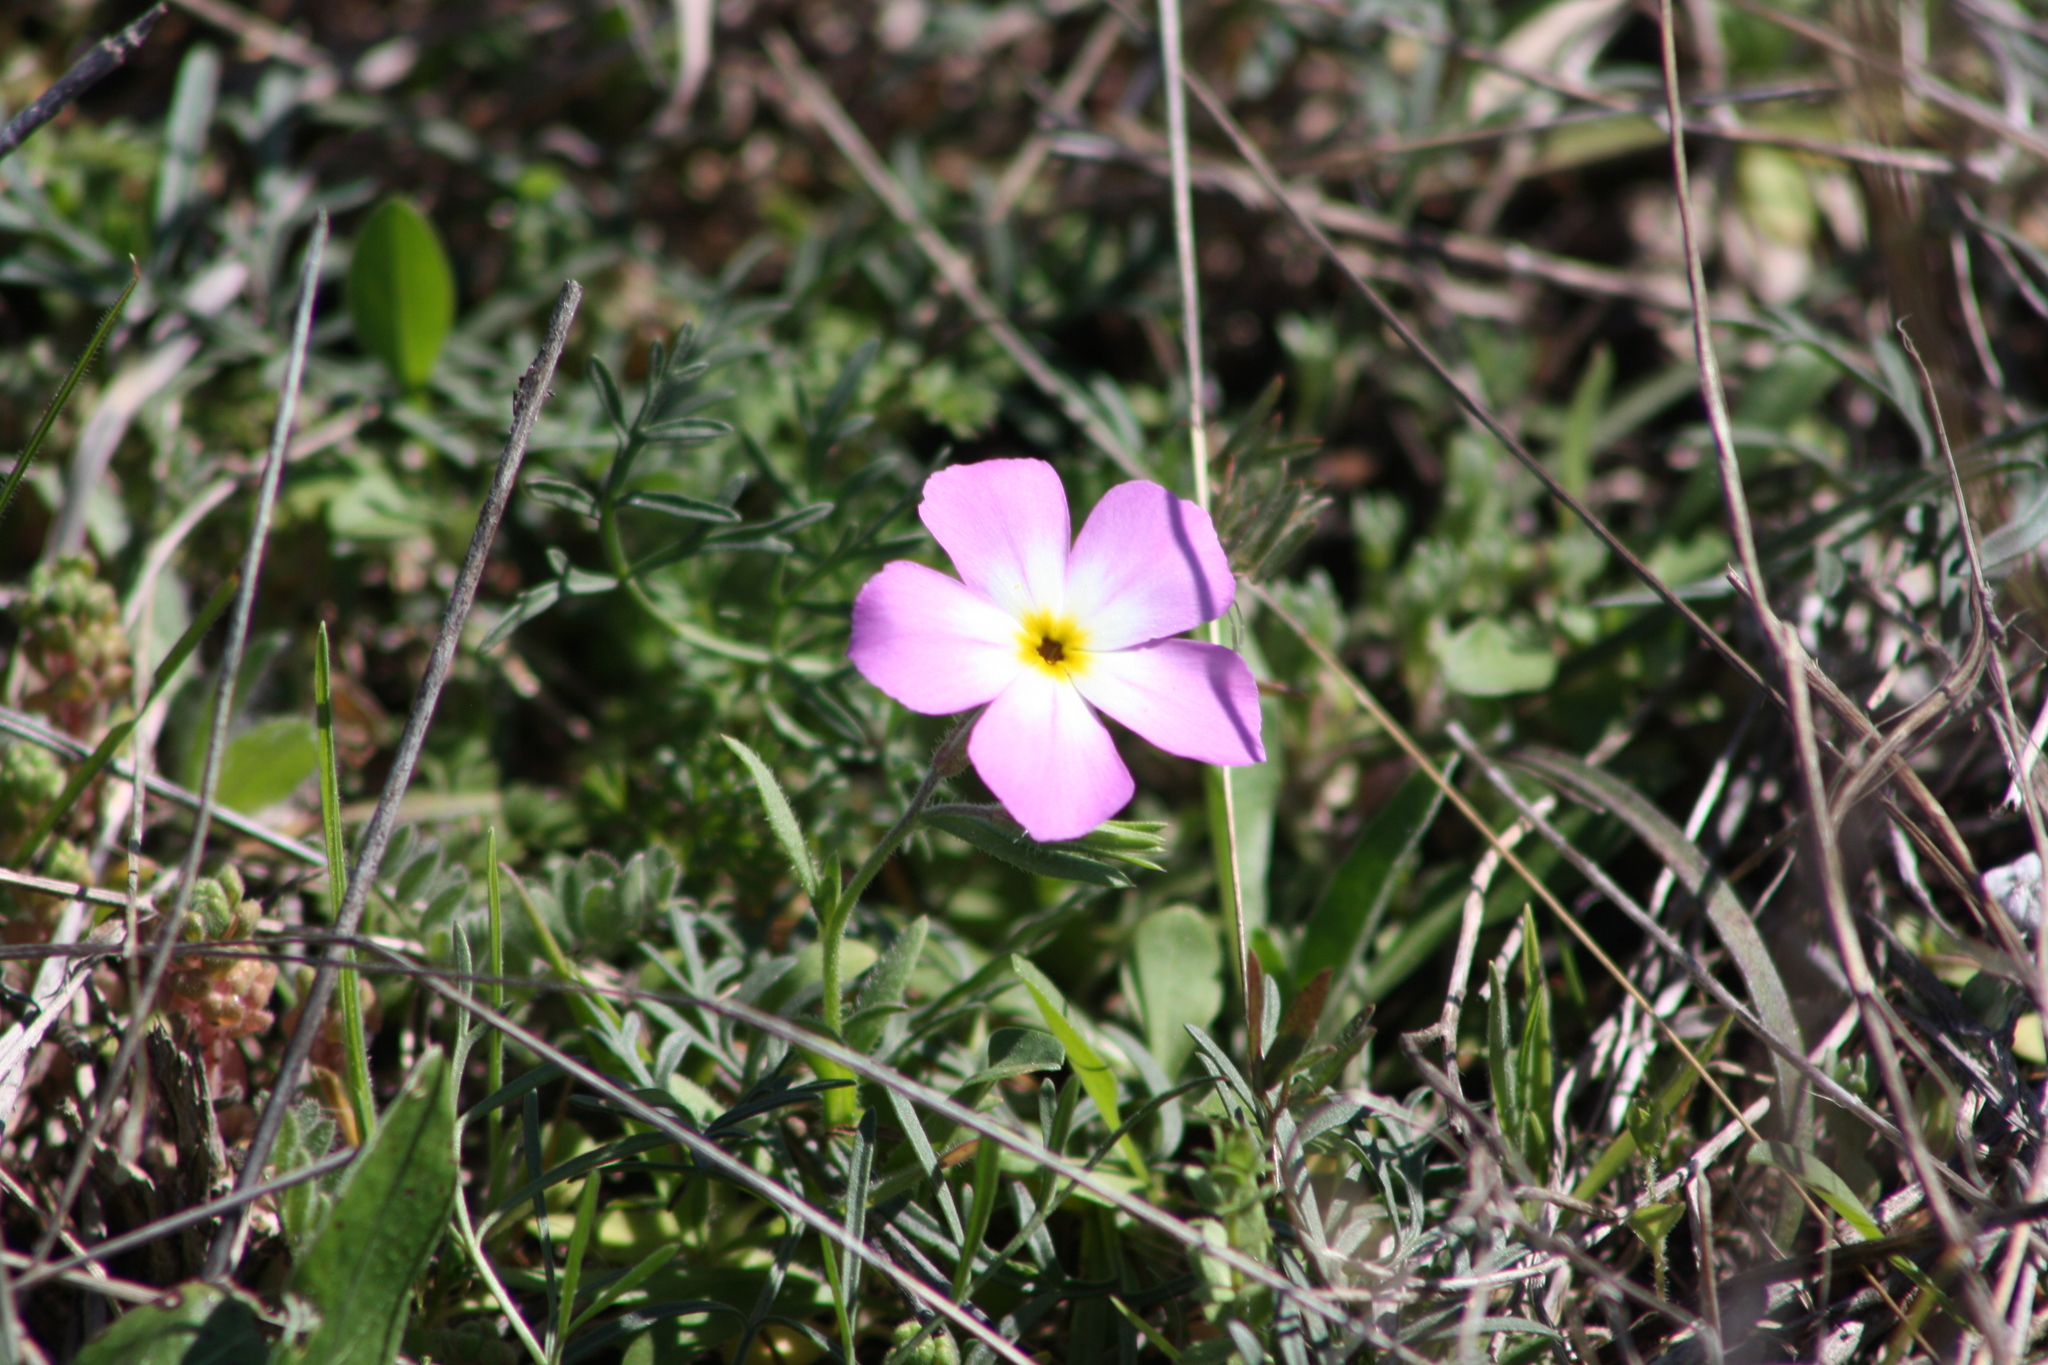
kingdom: Plantae
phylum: Tracheophyta
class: Magnoliopsida
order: Ericales
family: Polemoniaceae
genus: Phlox
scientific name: Phlox roemeriana
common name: Roemer's phlox
